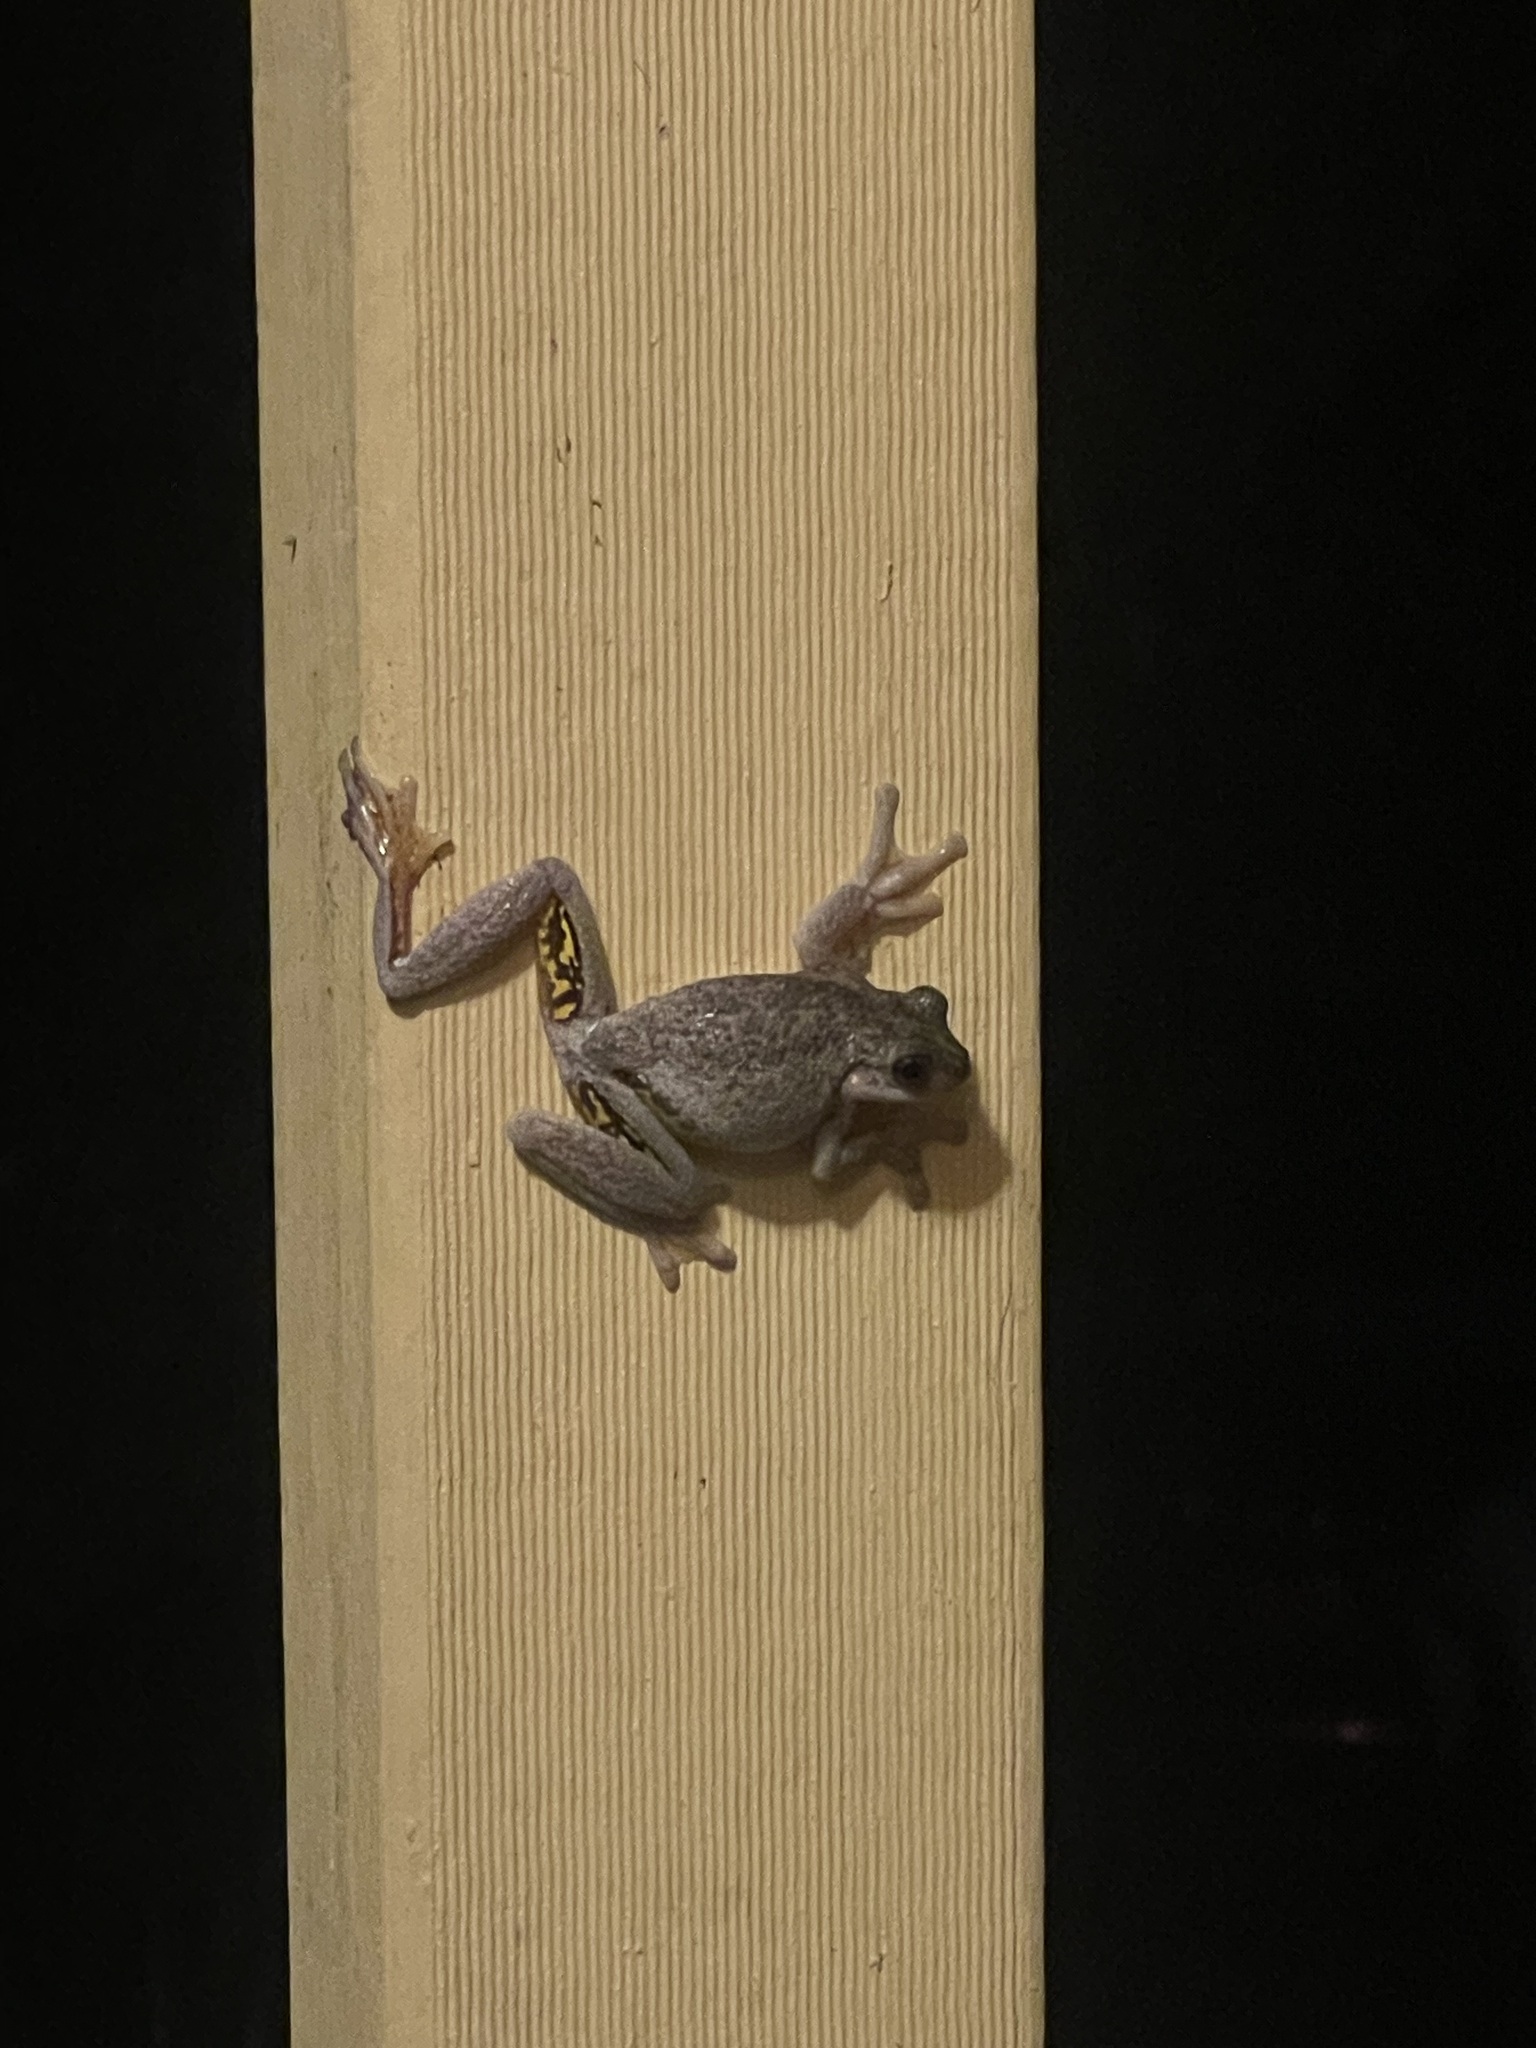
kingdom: Animalia
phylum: Chordata
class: Amphibia
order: Anura
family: Pelodryadidae
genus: Litoria
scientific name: Litoria peronii
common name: Emerald spotted treefrog
